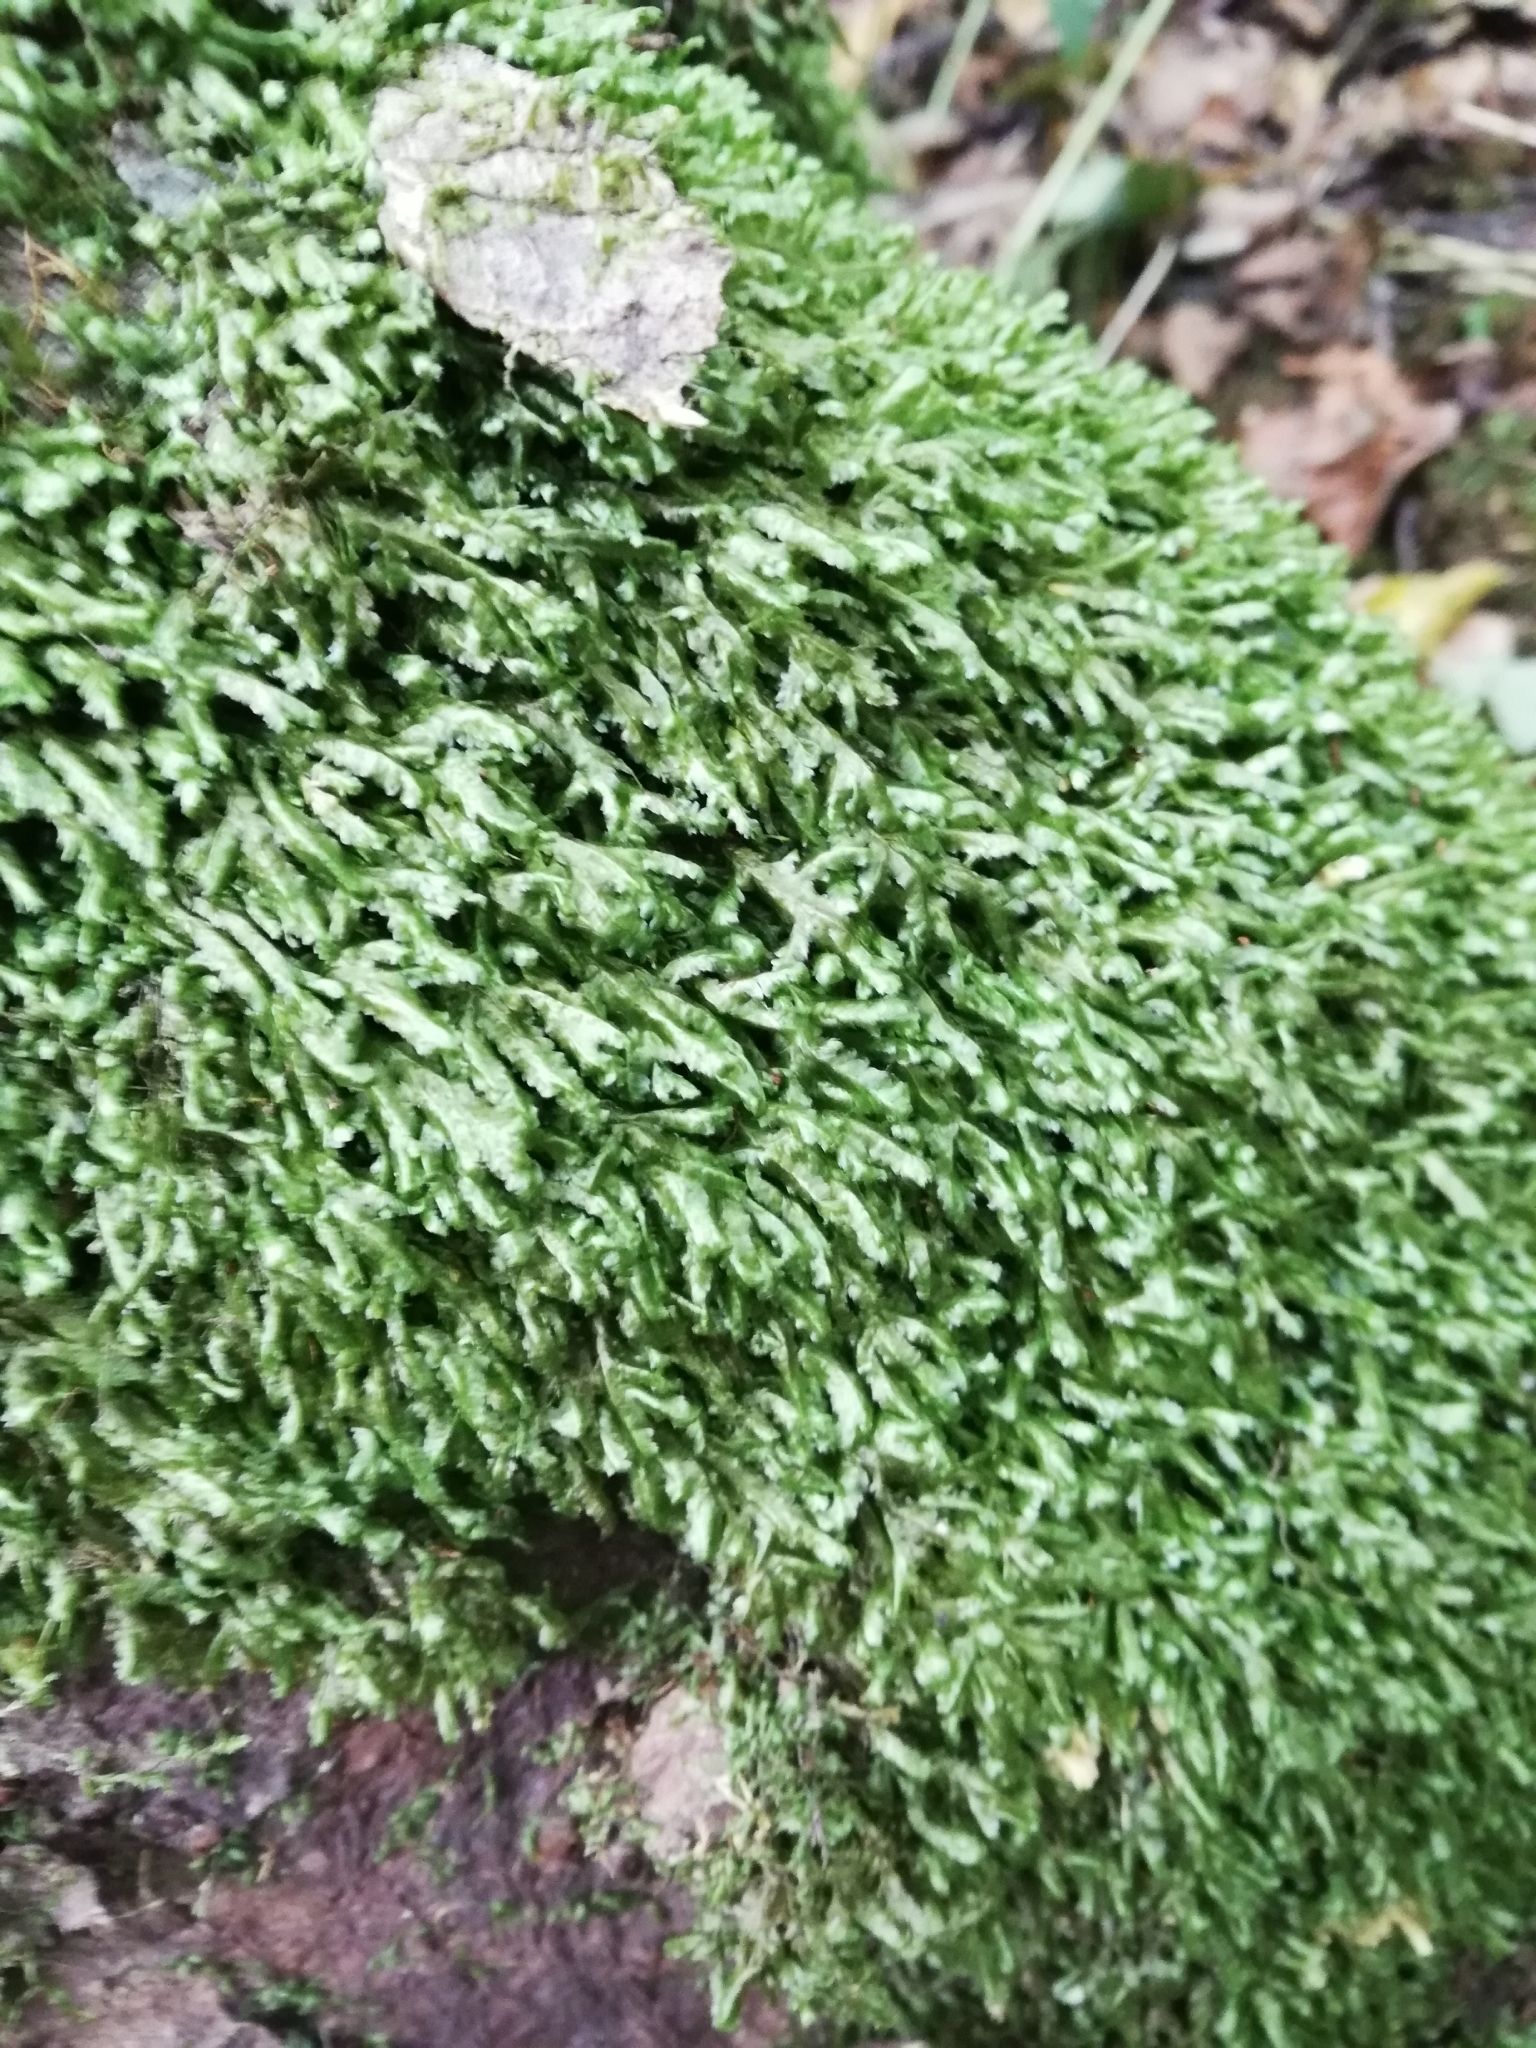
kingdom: Plantae
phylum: Bryophyta
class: Bryopsida
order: Hypnales
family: Neckeraceae
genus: Homalia
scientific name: Homalia trichomanoides
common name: Lime homalia moss
